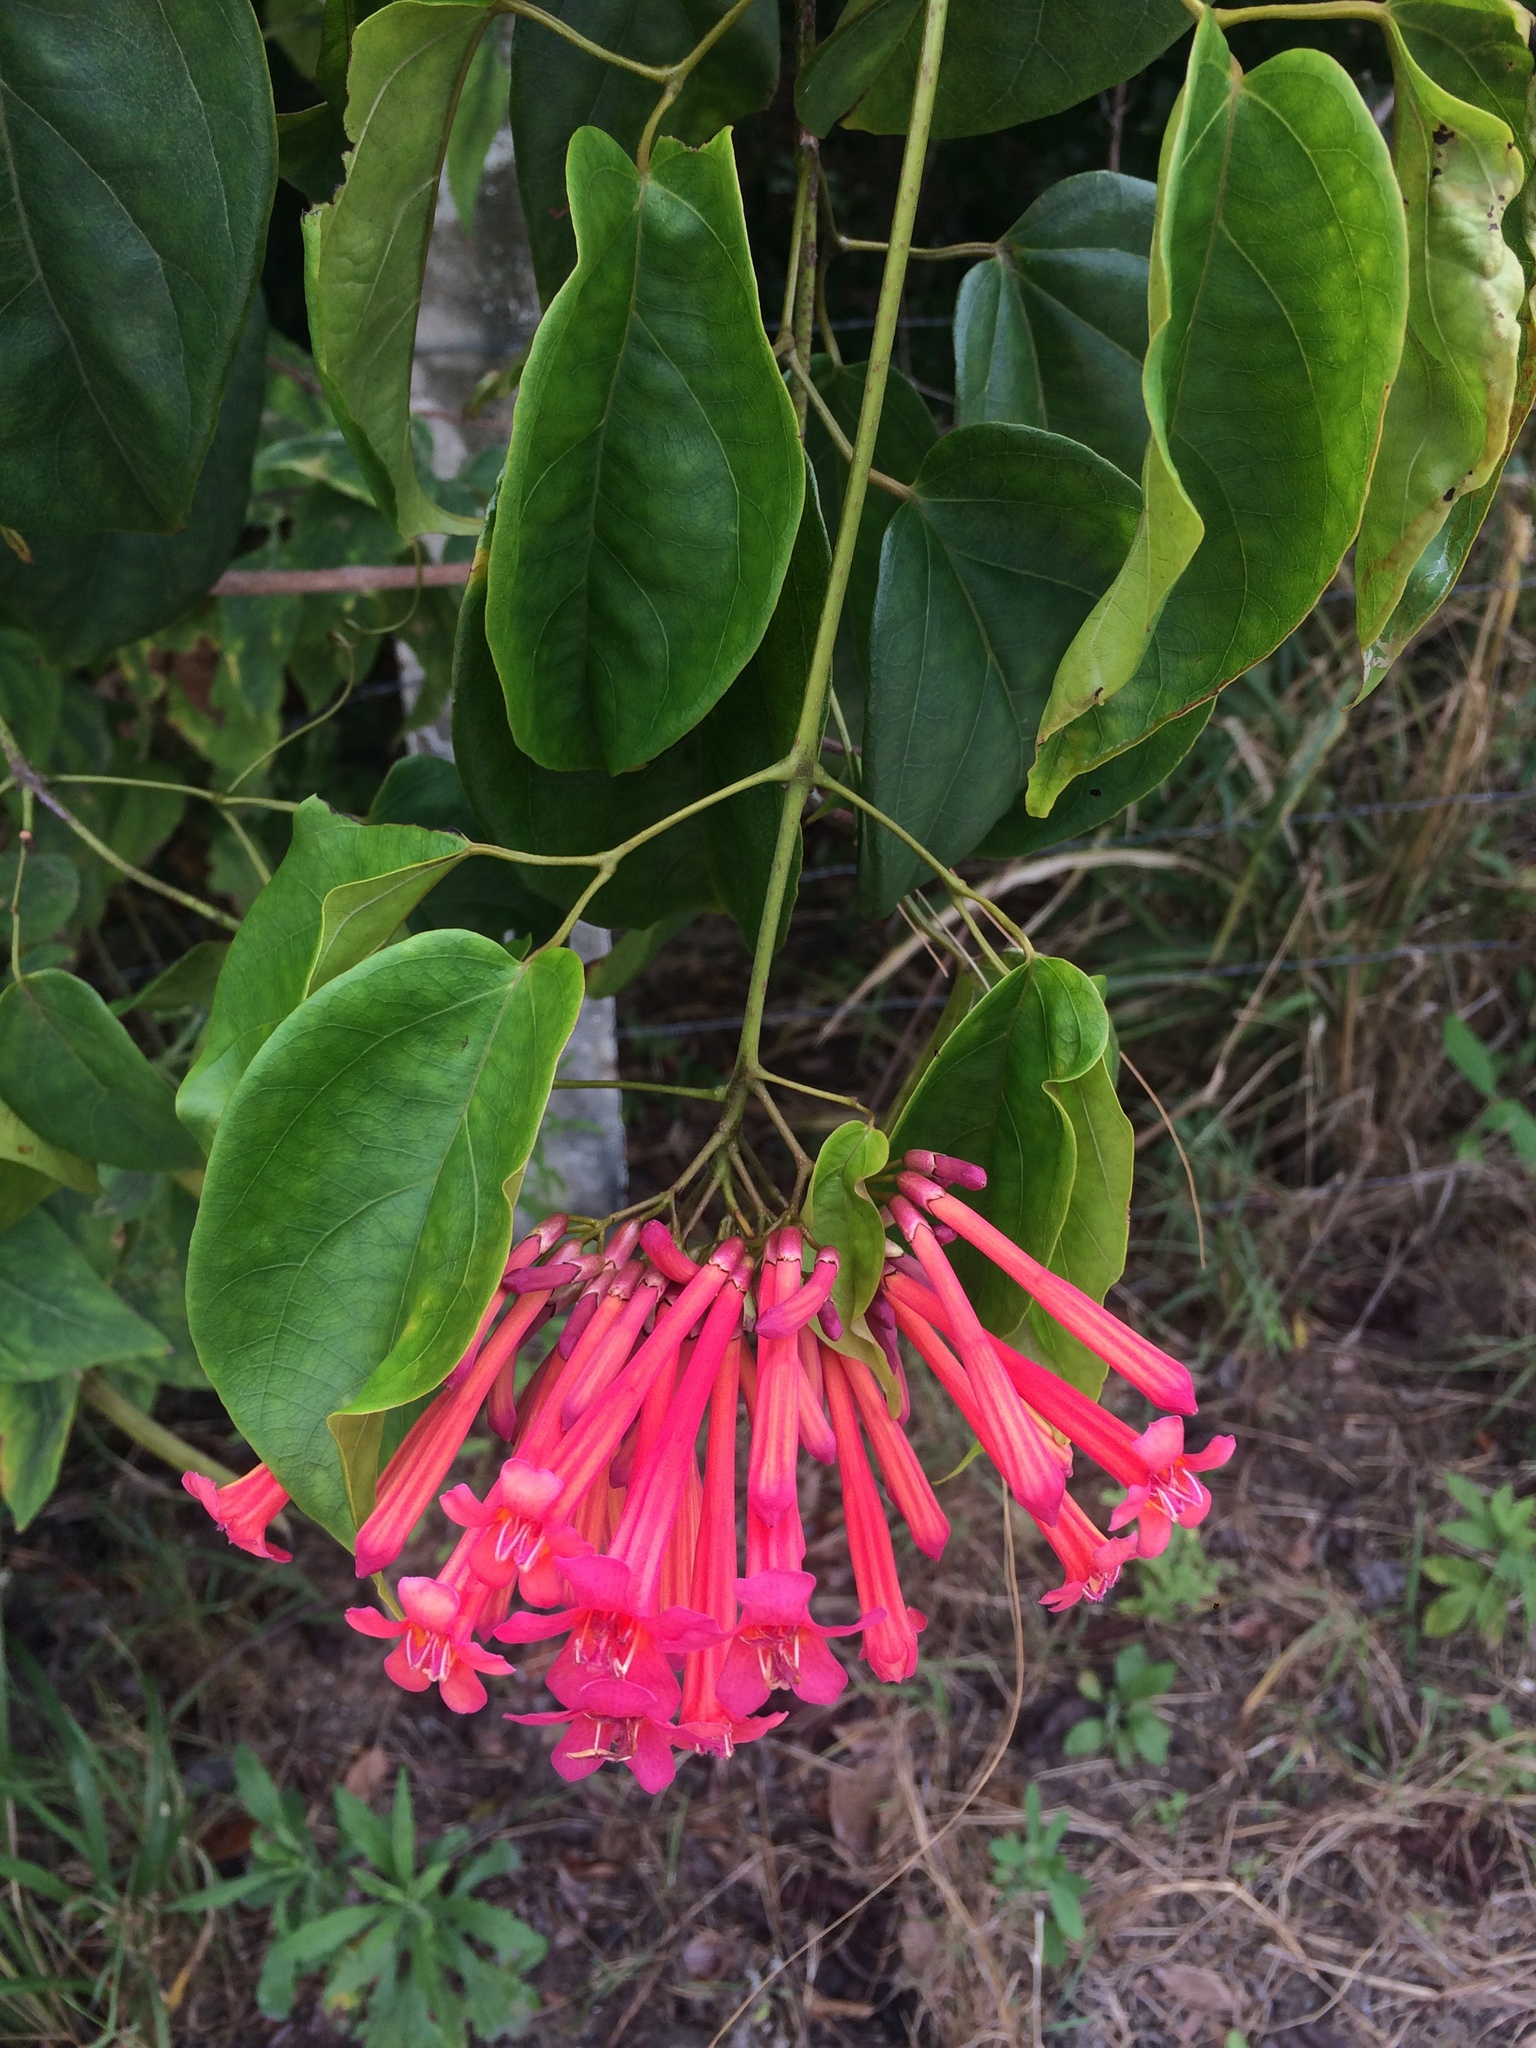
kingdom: Plantae
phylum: Tracheophyta
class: Magnoliopsida
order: Lamiales
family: Bignoniaceae
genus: Lundia
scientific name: Lundia longa
